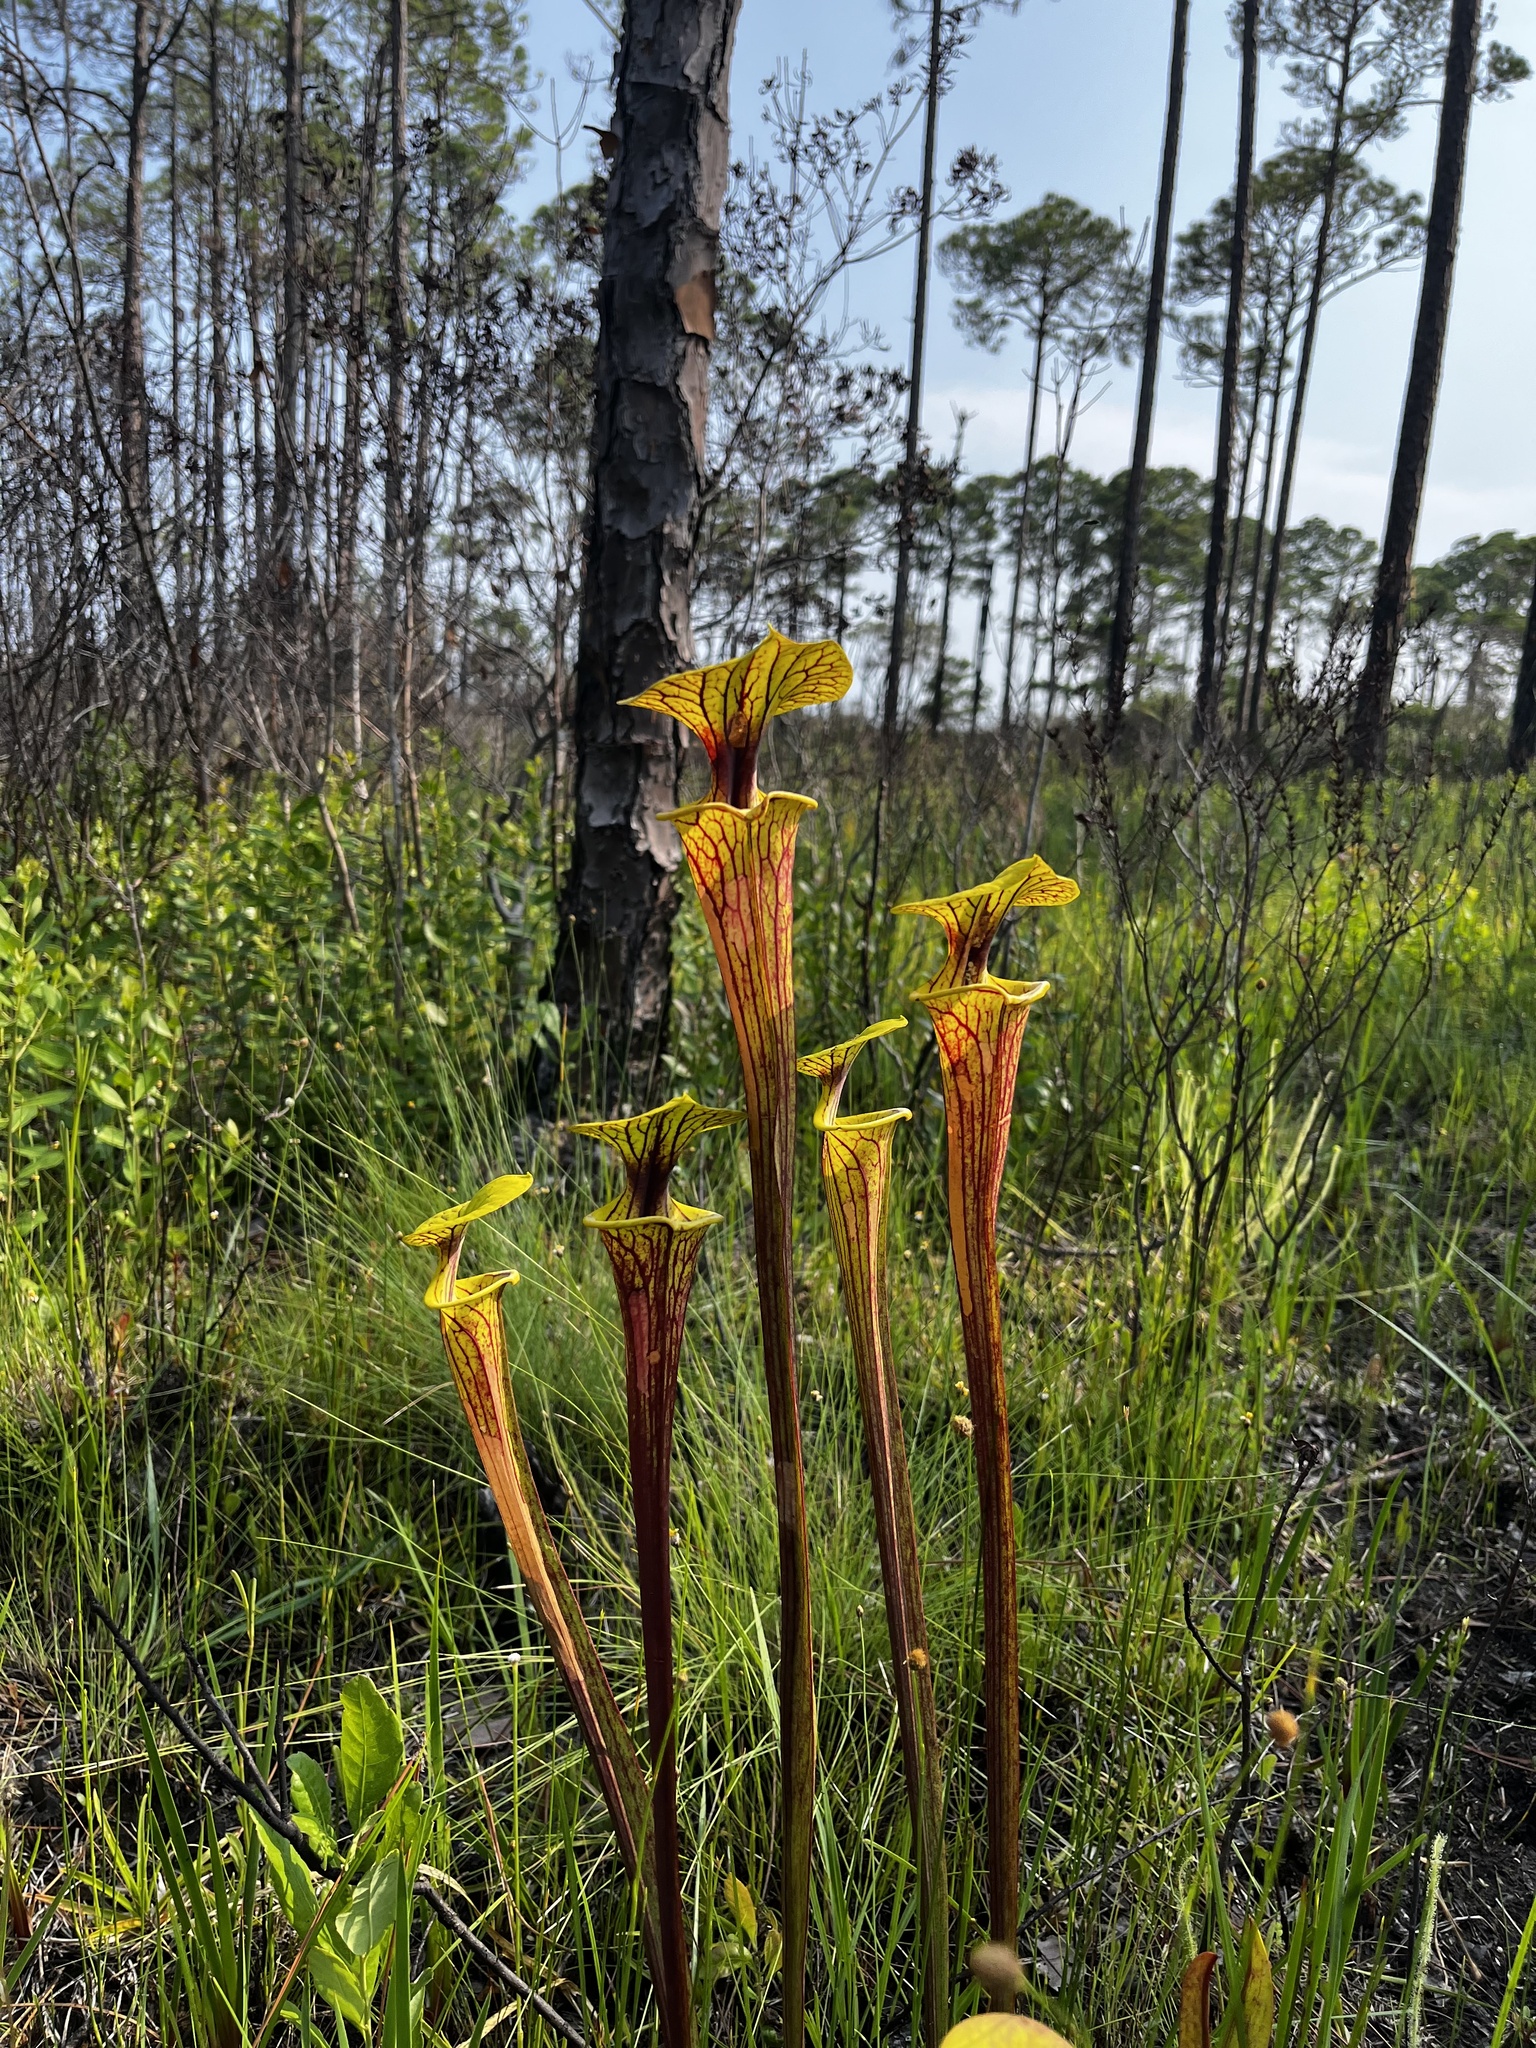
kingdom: Plantae
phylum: Tracheophyta
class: Magnoliopsida
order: Ericales
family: Sarraceniaceae
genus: Sarracenia
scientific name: Sarracenia flava
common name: Trumpets
